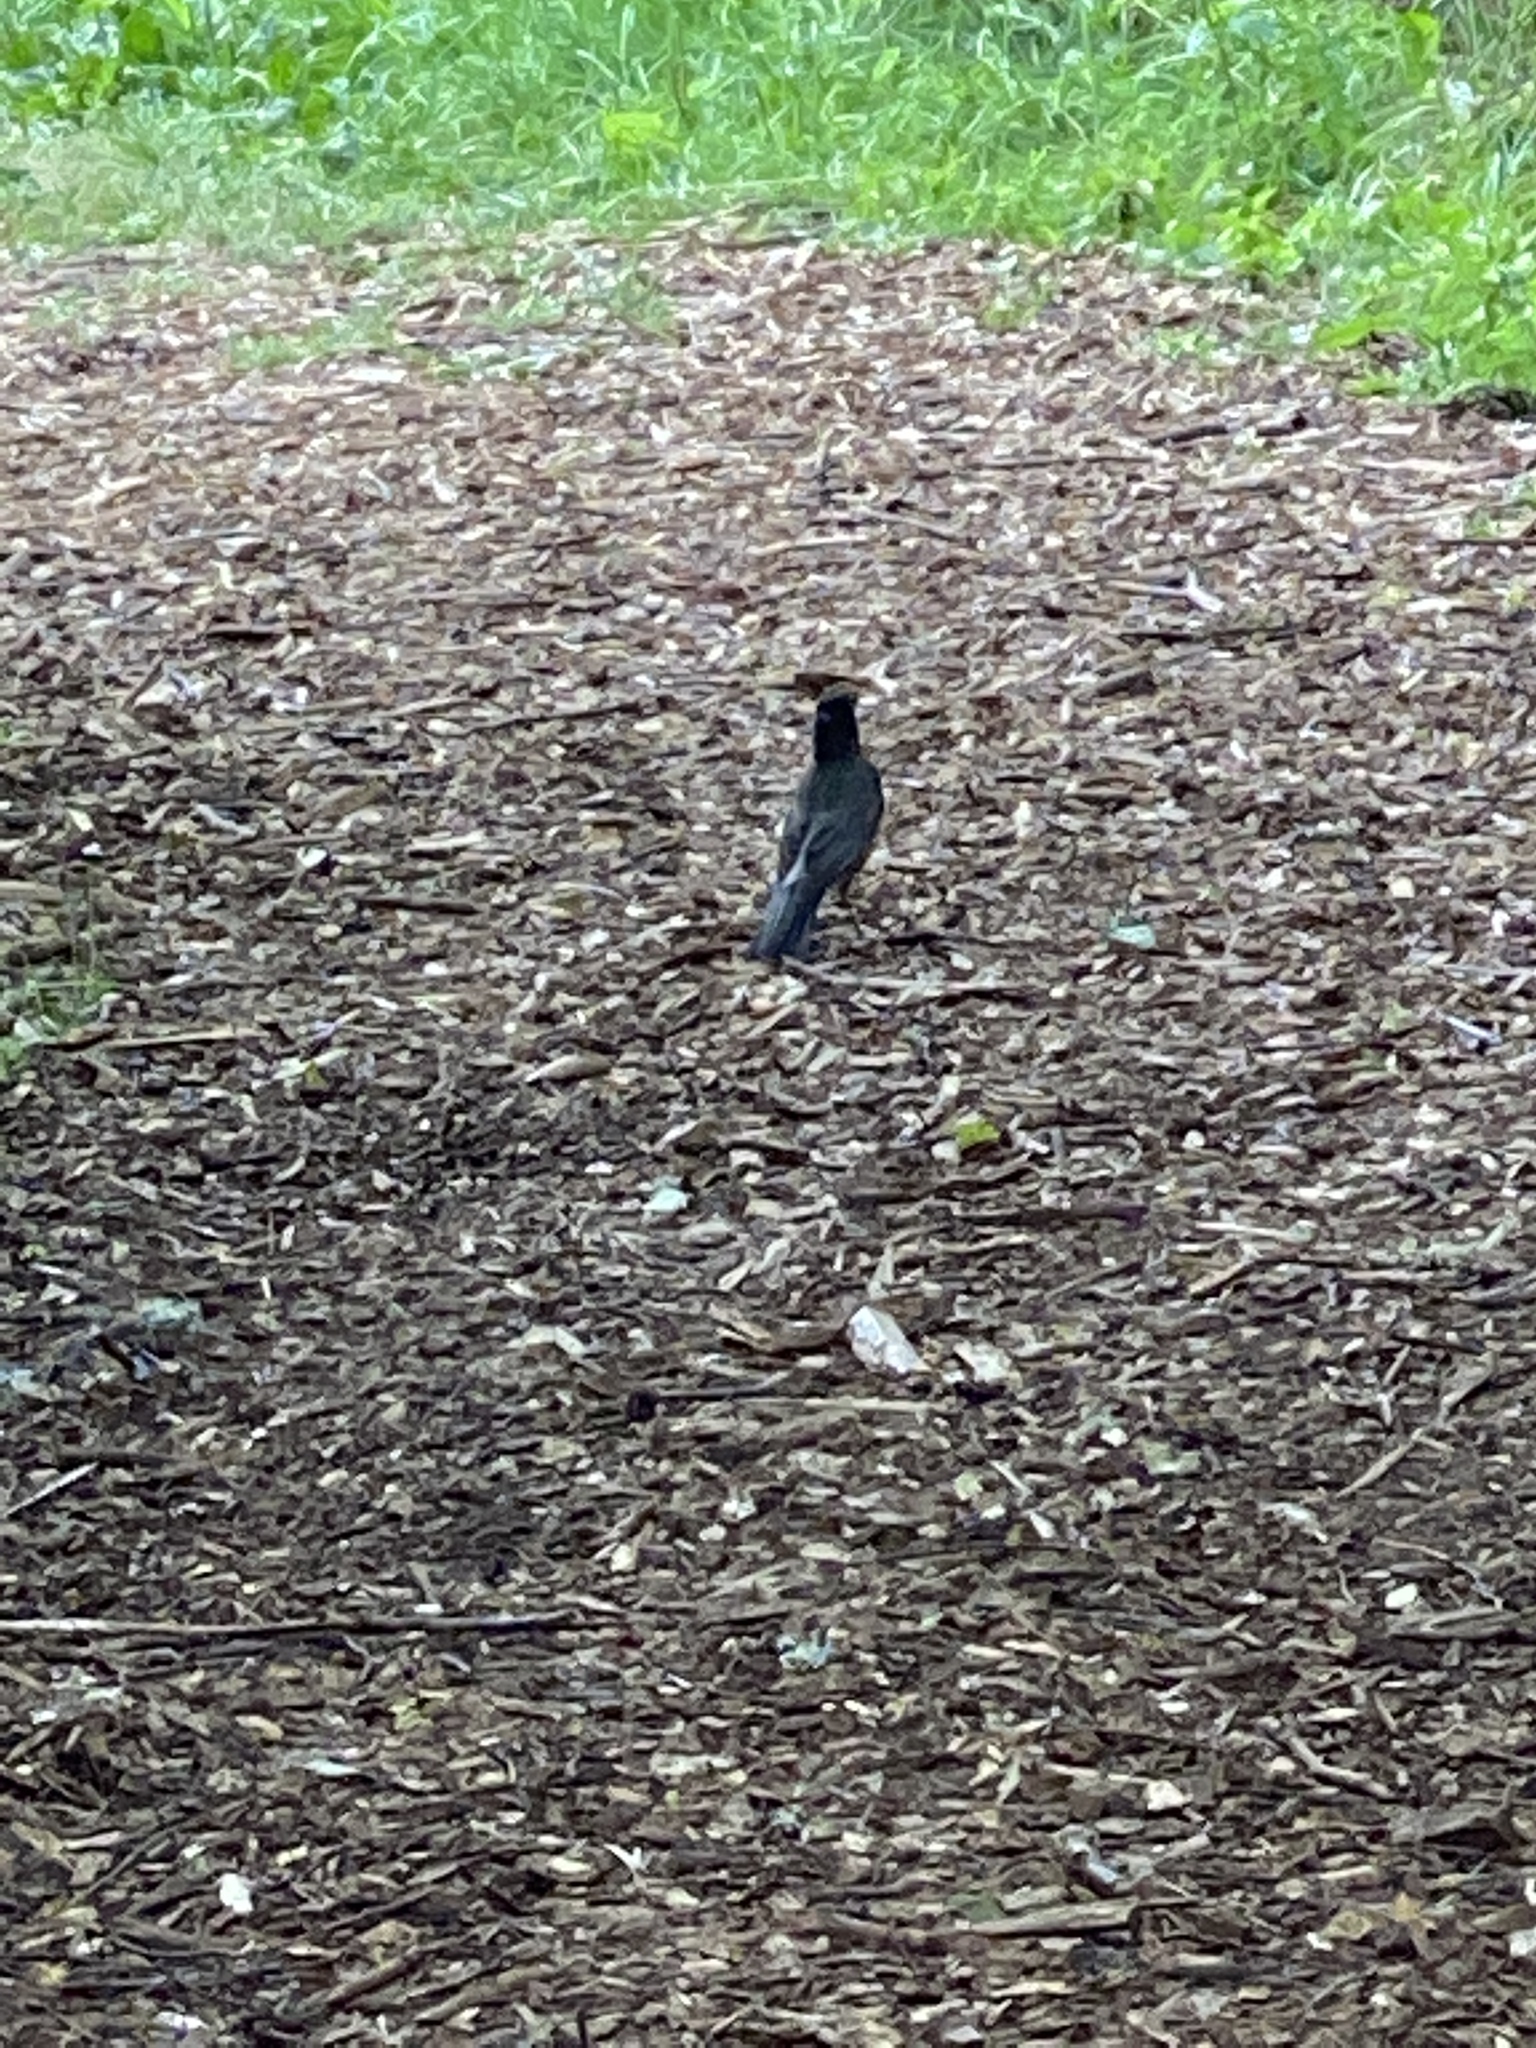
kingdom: Animalia
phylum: Chordata
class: Aves
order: Passeriformes
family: Turdidae
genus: Turdus
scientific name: Turdus migratorius
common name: American robin
